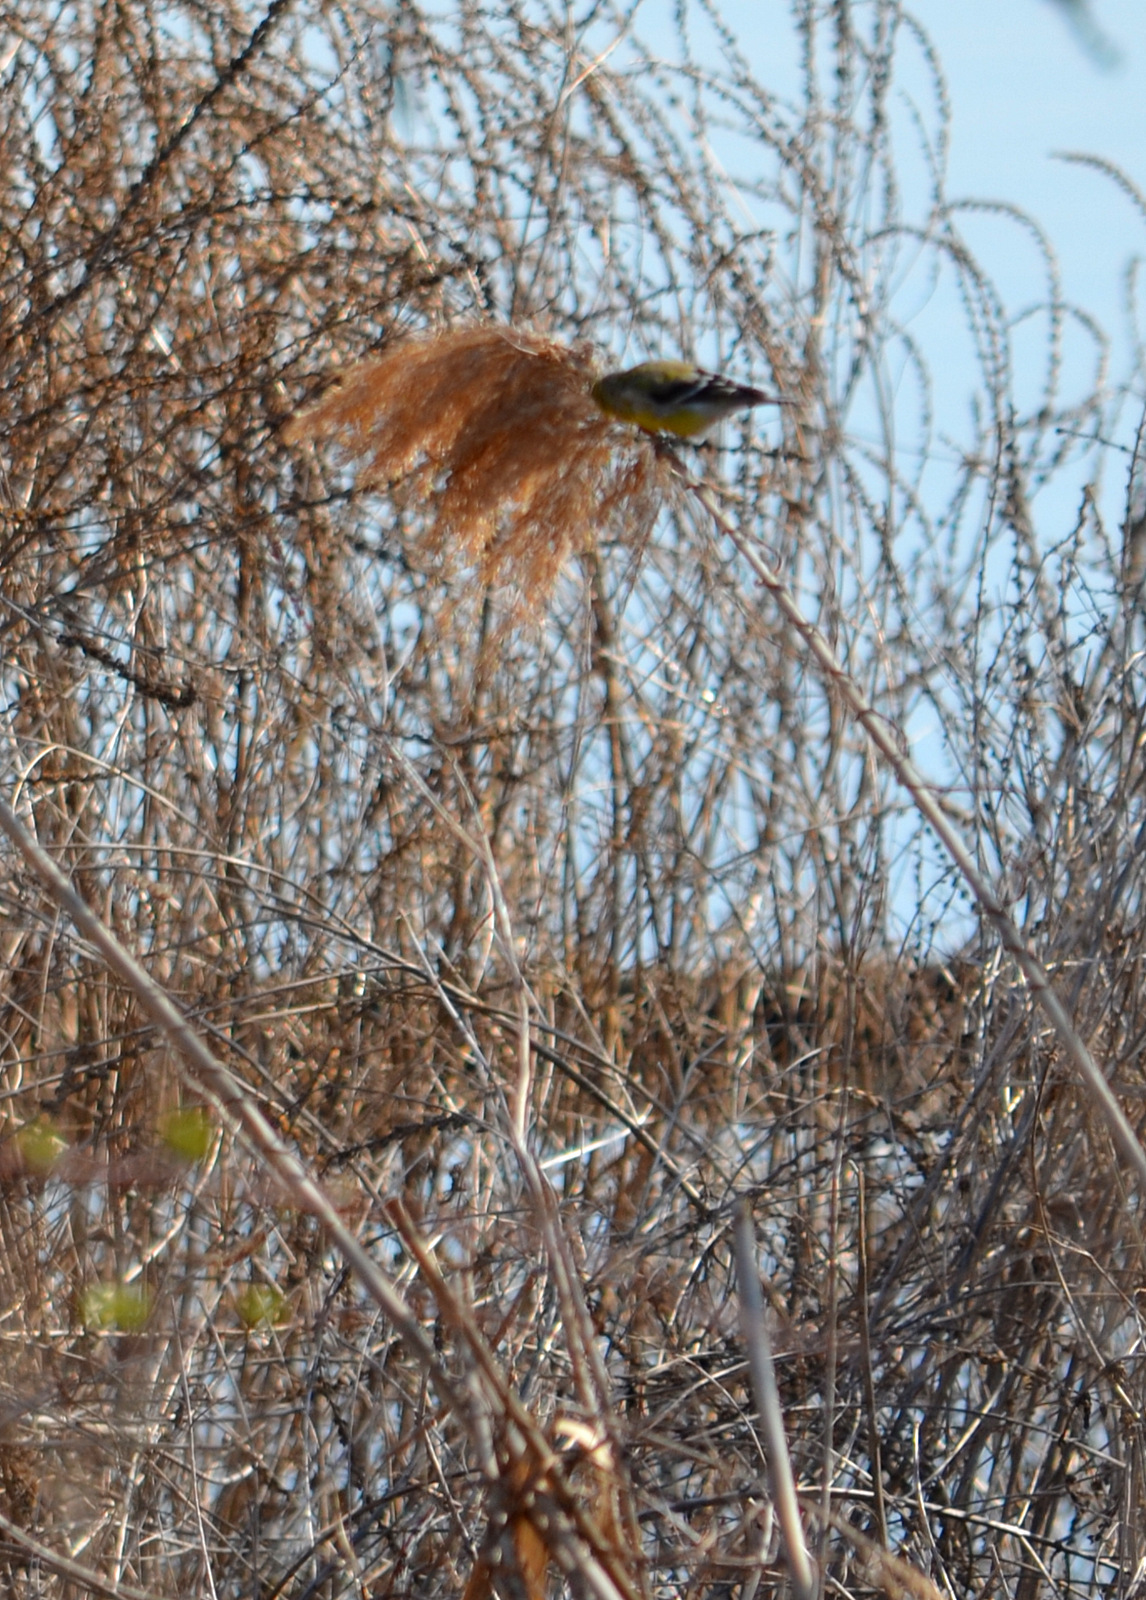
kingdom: Animalia
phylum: Chordata
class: Aves
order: Passeriformes
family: Fringillidae
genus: Spinus
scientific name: Spinus tristis
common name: American goldfinch
